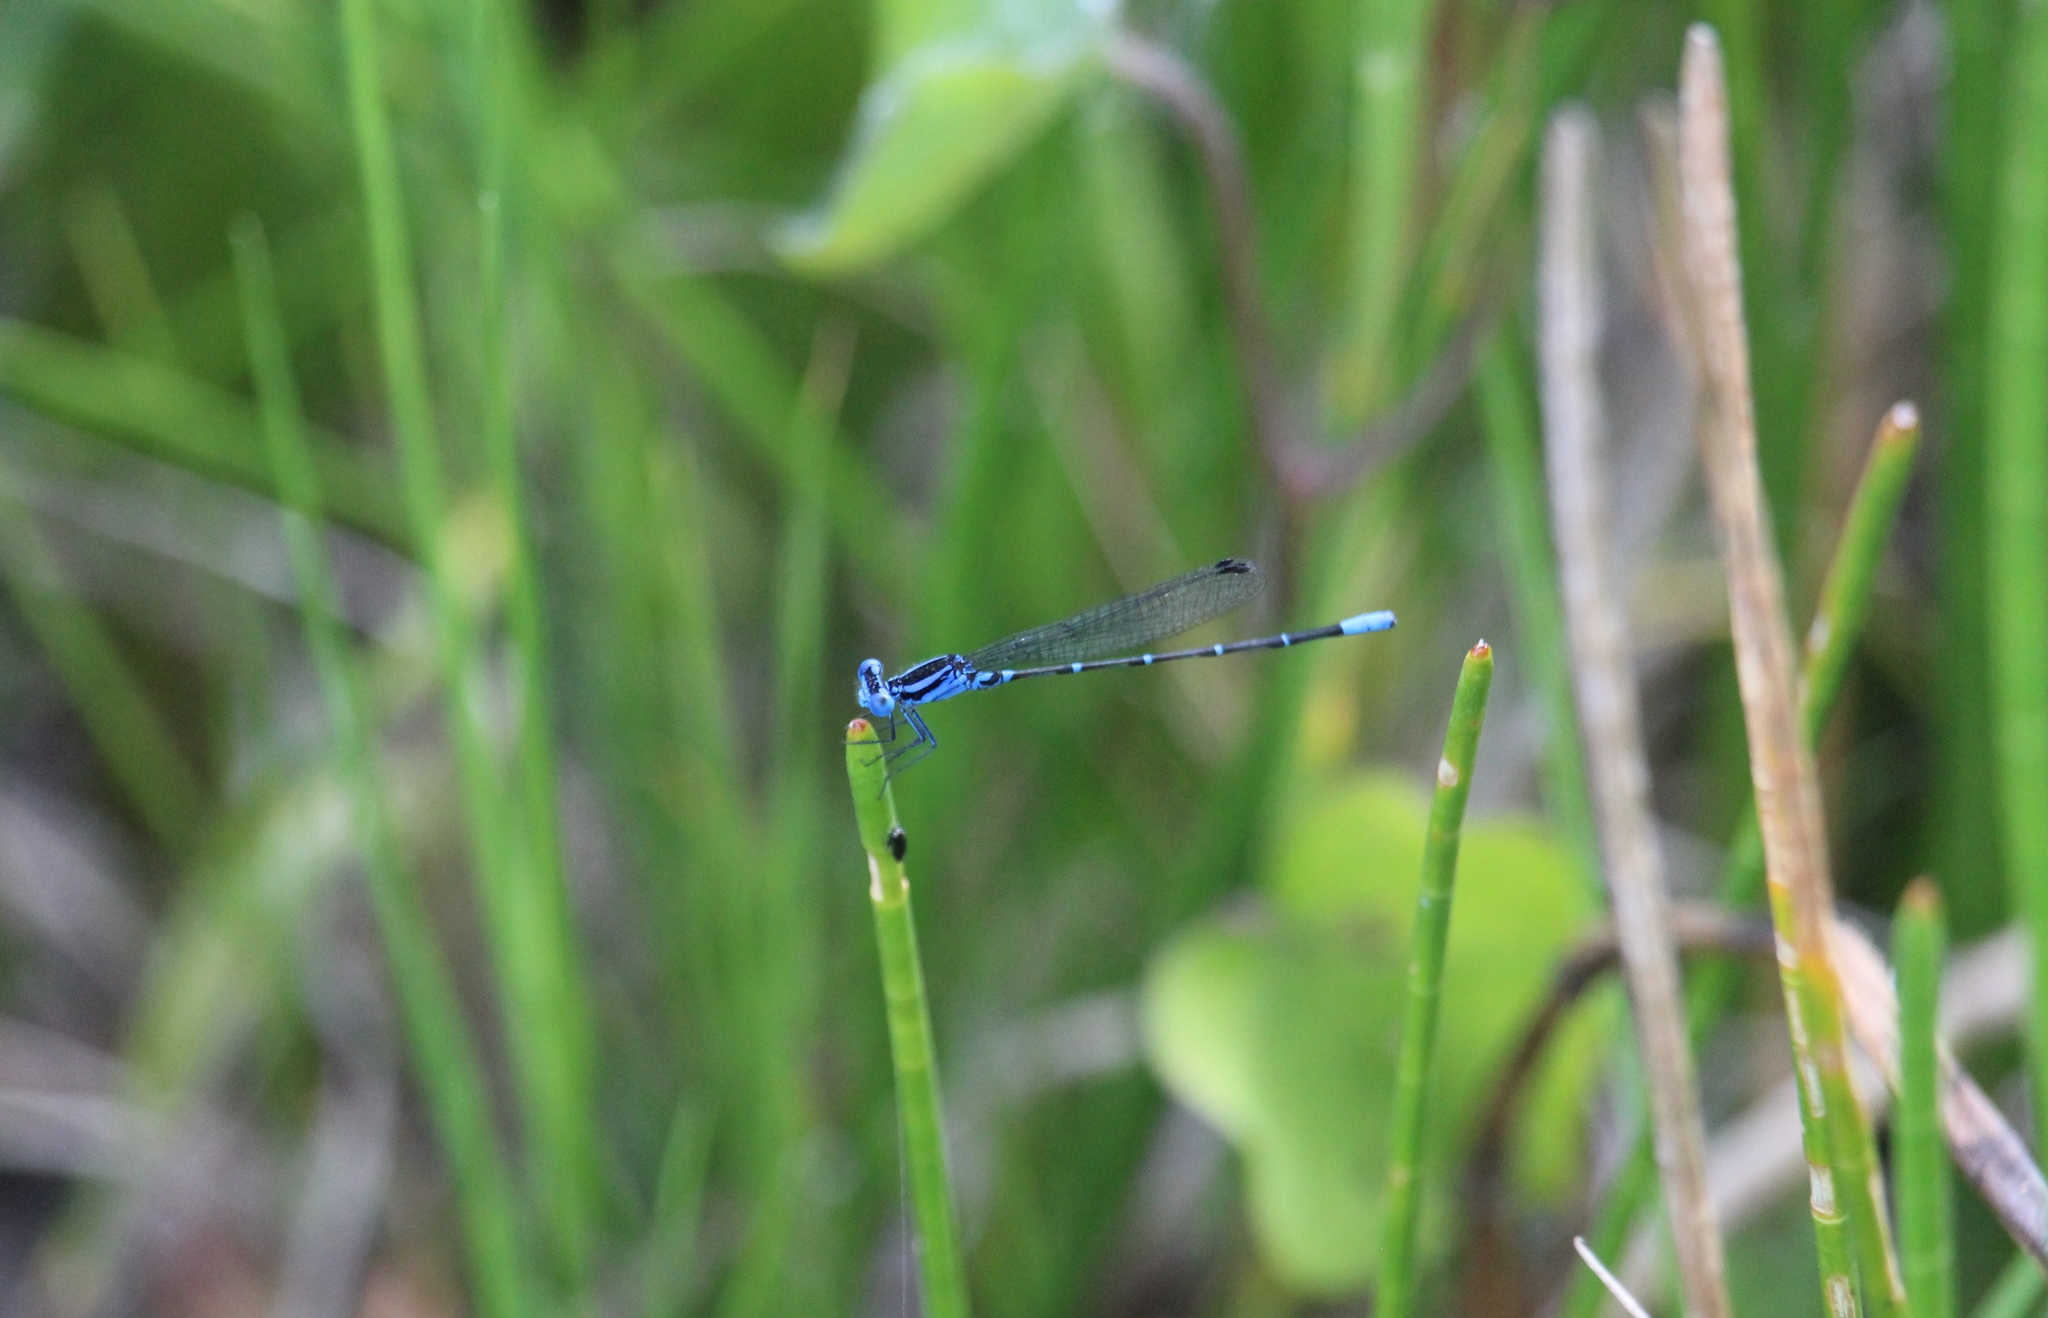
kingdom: Animalia
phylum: Arthropoda
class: Insecta
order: Odonata
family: Coenagrionidae
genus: Argia
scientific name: Argia gaumeri
